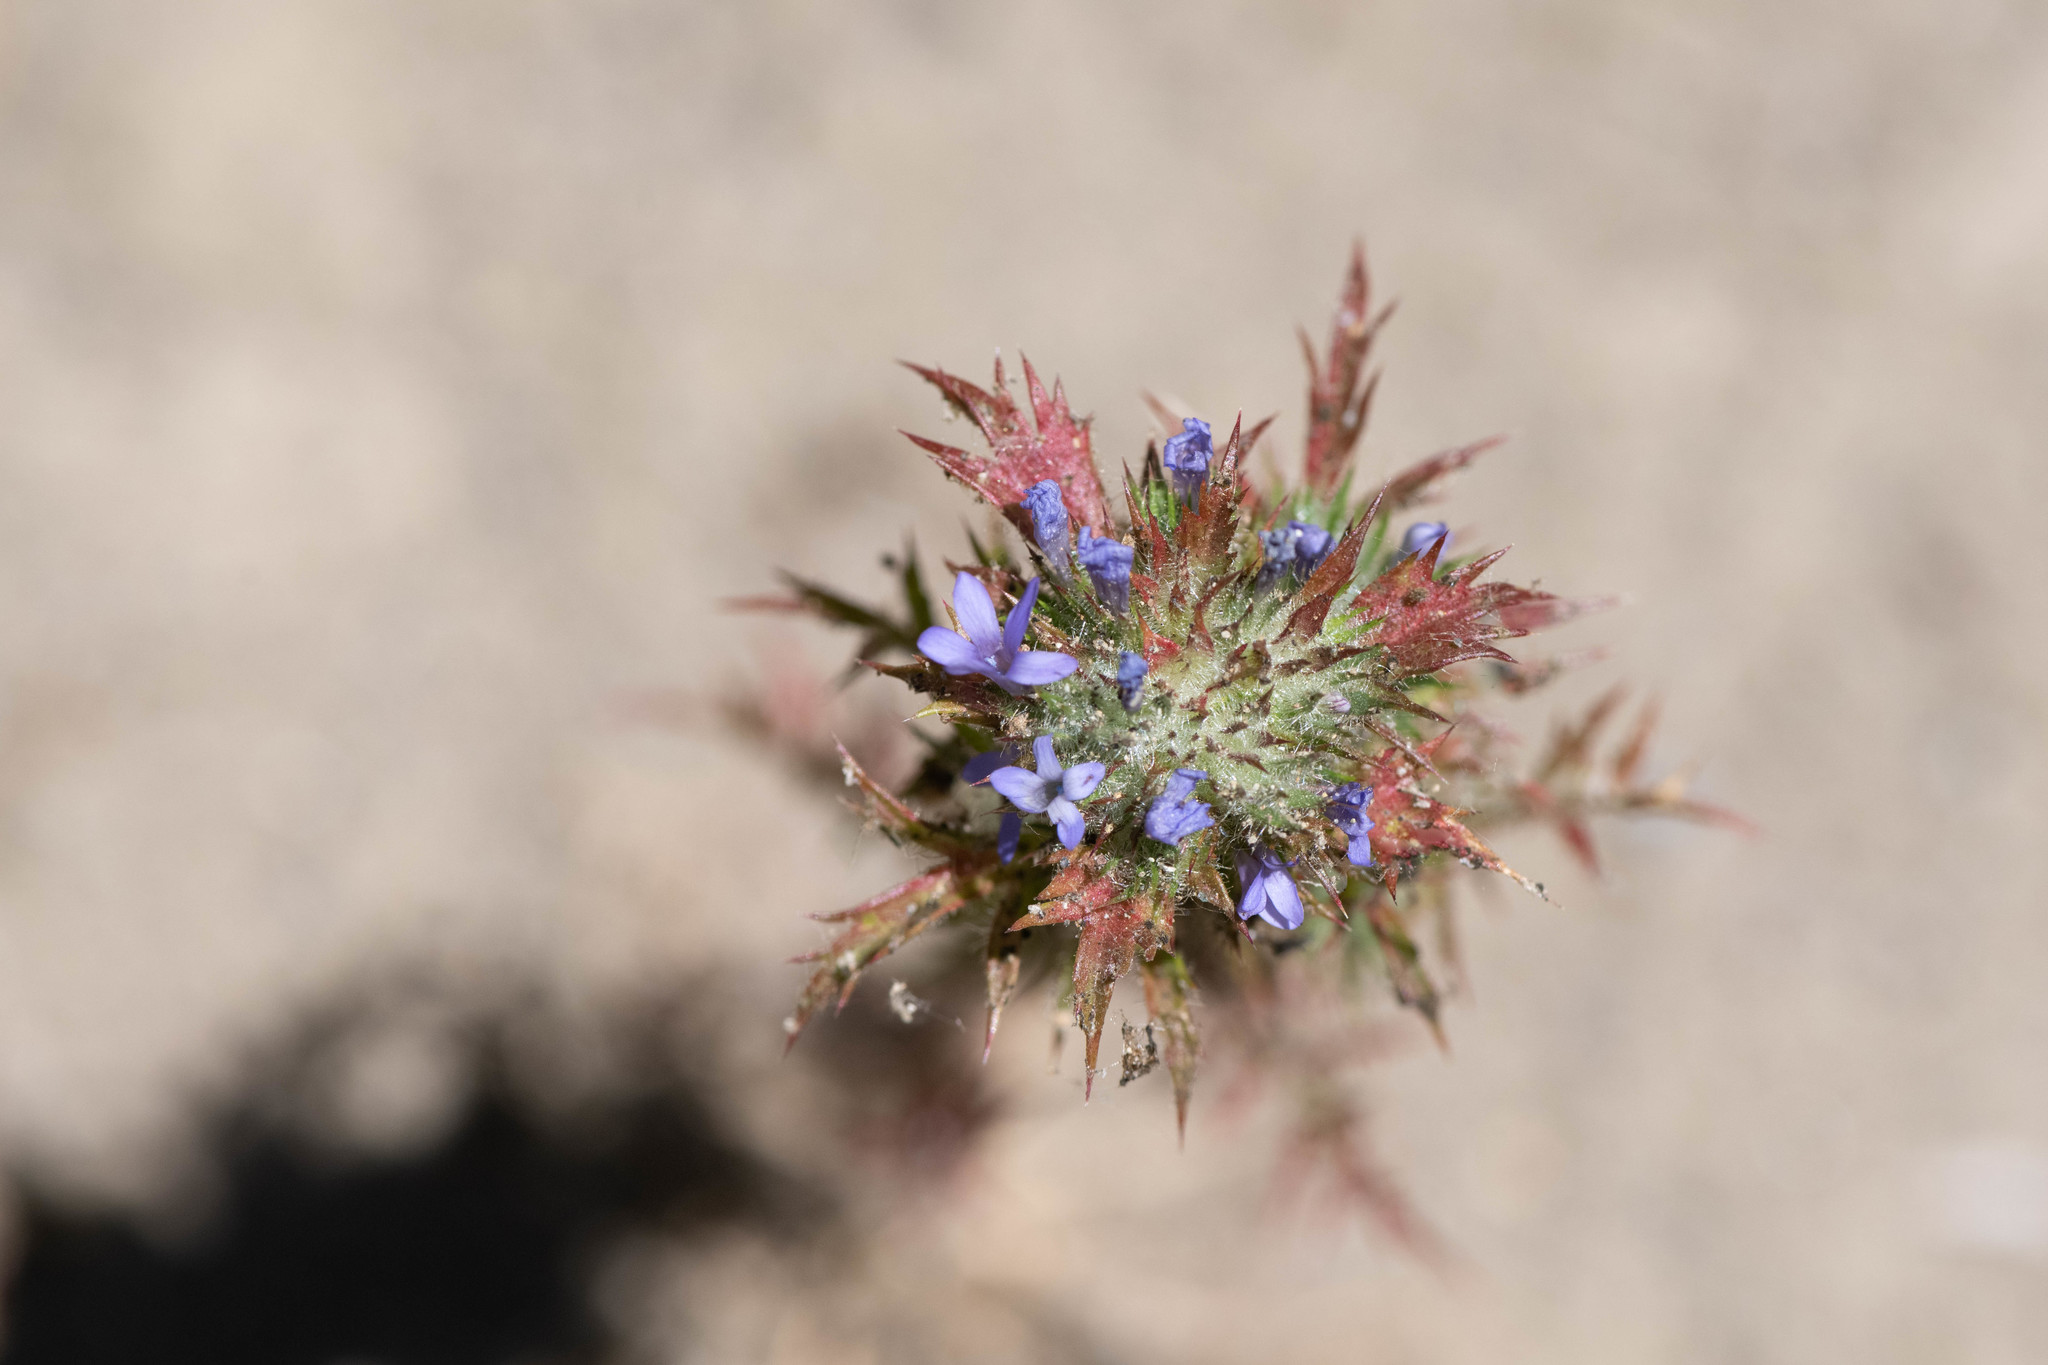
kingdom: Plantae
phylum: Tracheophyta
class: Magnoliopsida
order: Ericales
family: Polemoniaceae
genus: Navarretia
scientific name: Navarretia squarrosa
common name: Skunkweed
